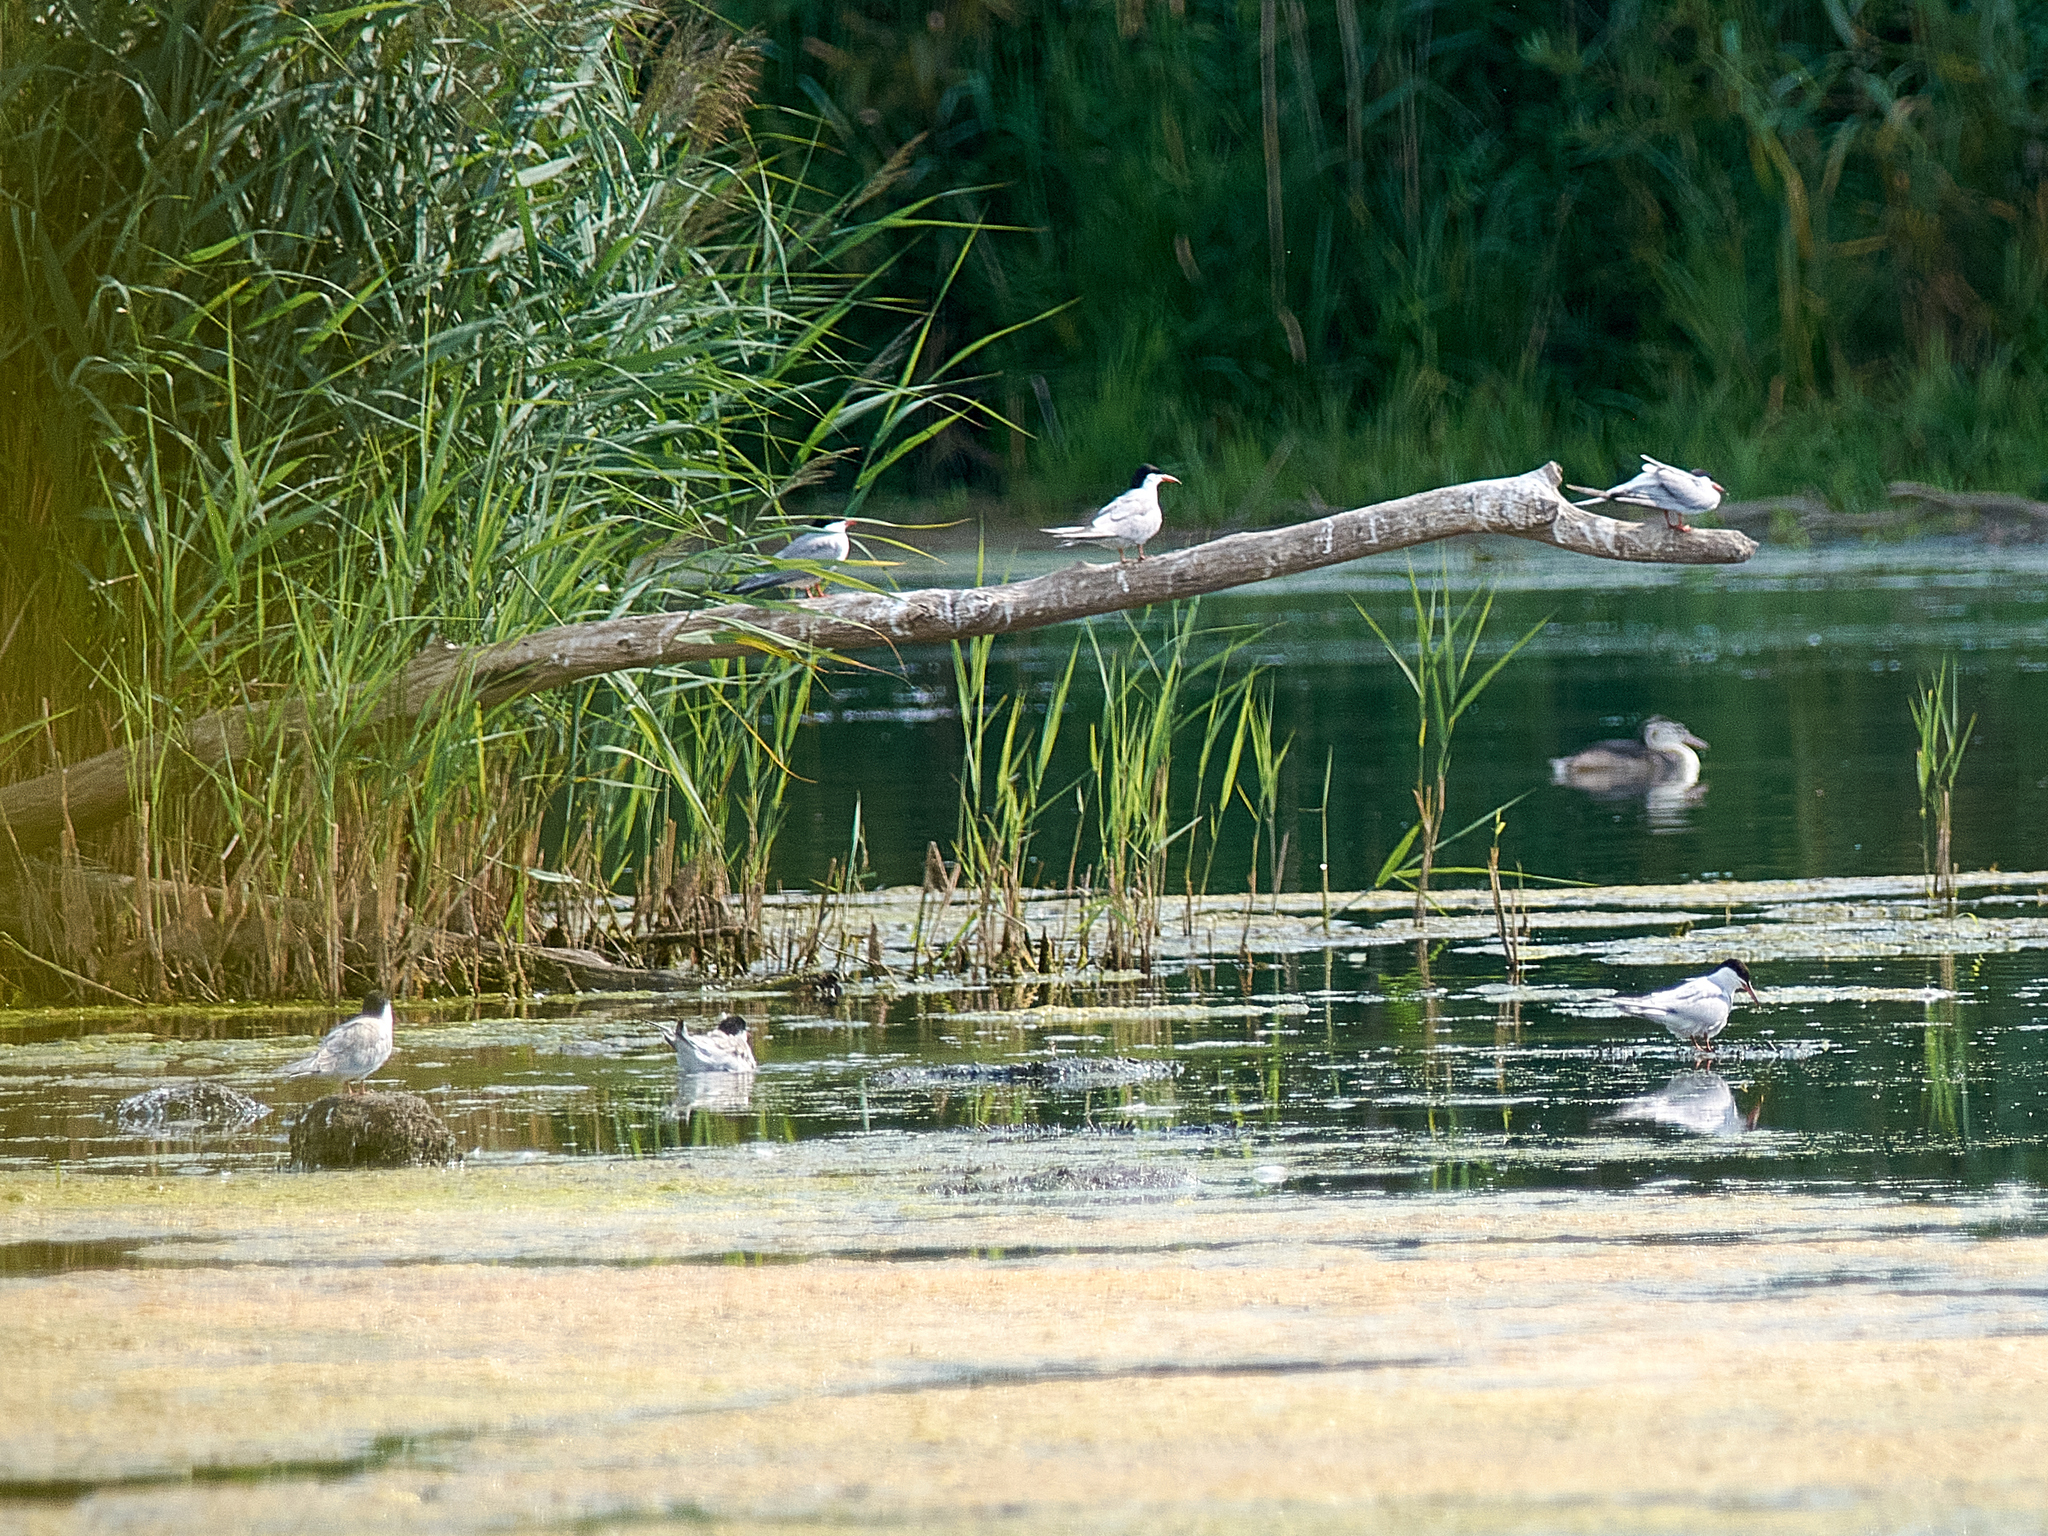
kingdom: Animalia
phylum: Chordata
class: Aves
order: Charadriiformes
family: Laridae
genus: Sterna
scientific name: Sterna hirundo
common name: Common tern
